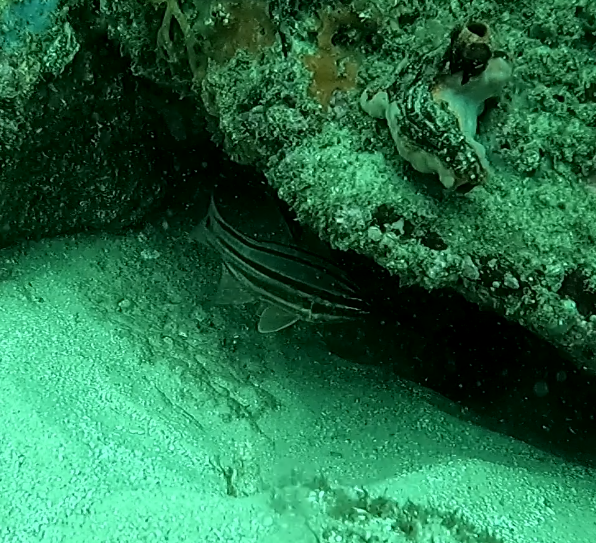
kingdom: Animalia
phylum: Chordata
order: Perciformes
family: Apogonidae
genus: Ostorhinchus
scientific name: Ostorhinchus limenus
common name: Four-banded soldierfish
